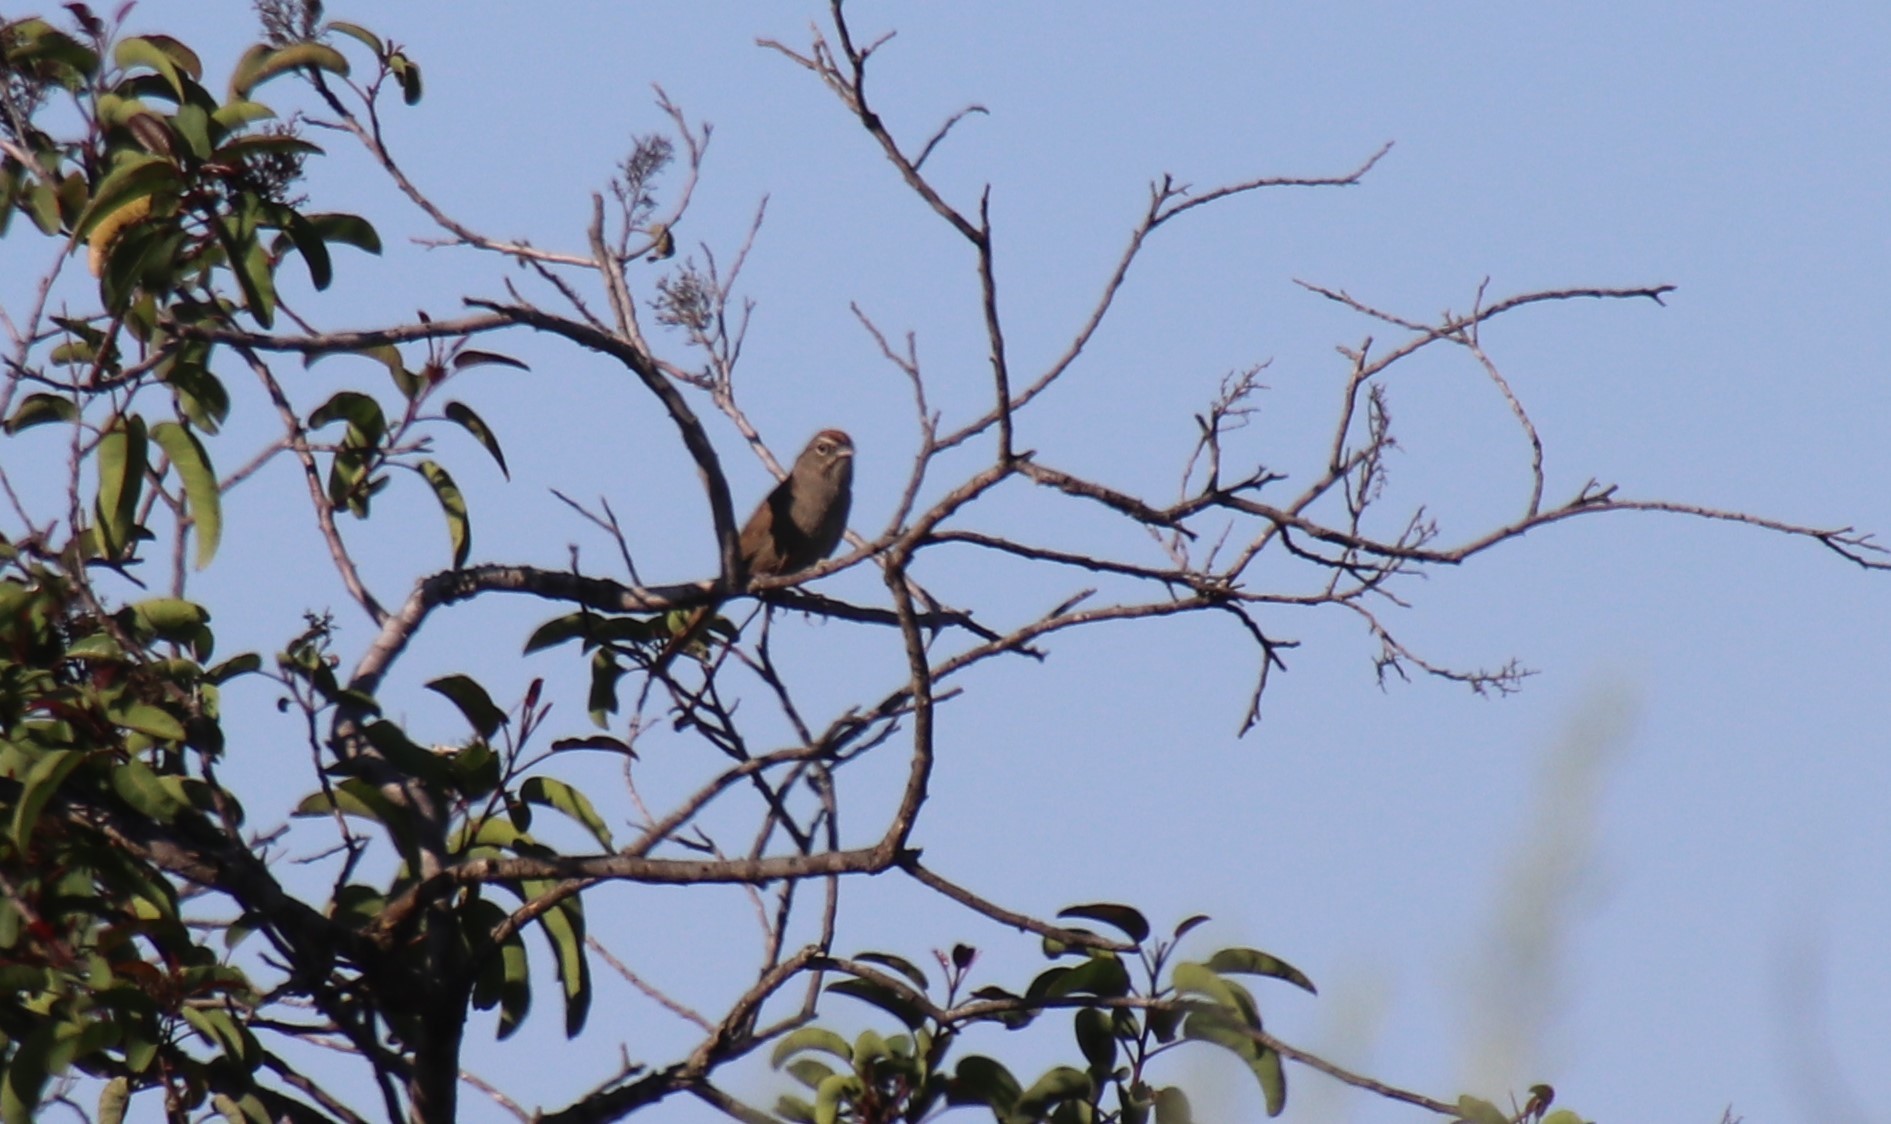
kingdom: Animalia
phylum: Chordata
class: Aves
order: Passeriformes
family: Passerellidae
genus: Aimophila
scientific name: Aimophila ruficeps
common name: Rufous-crowned sparrow
